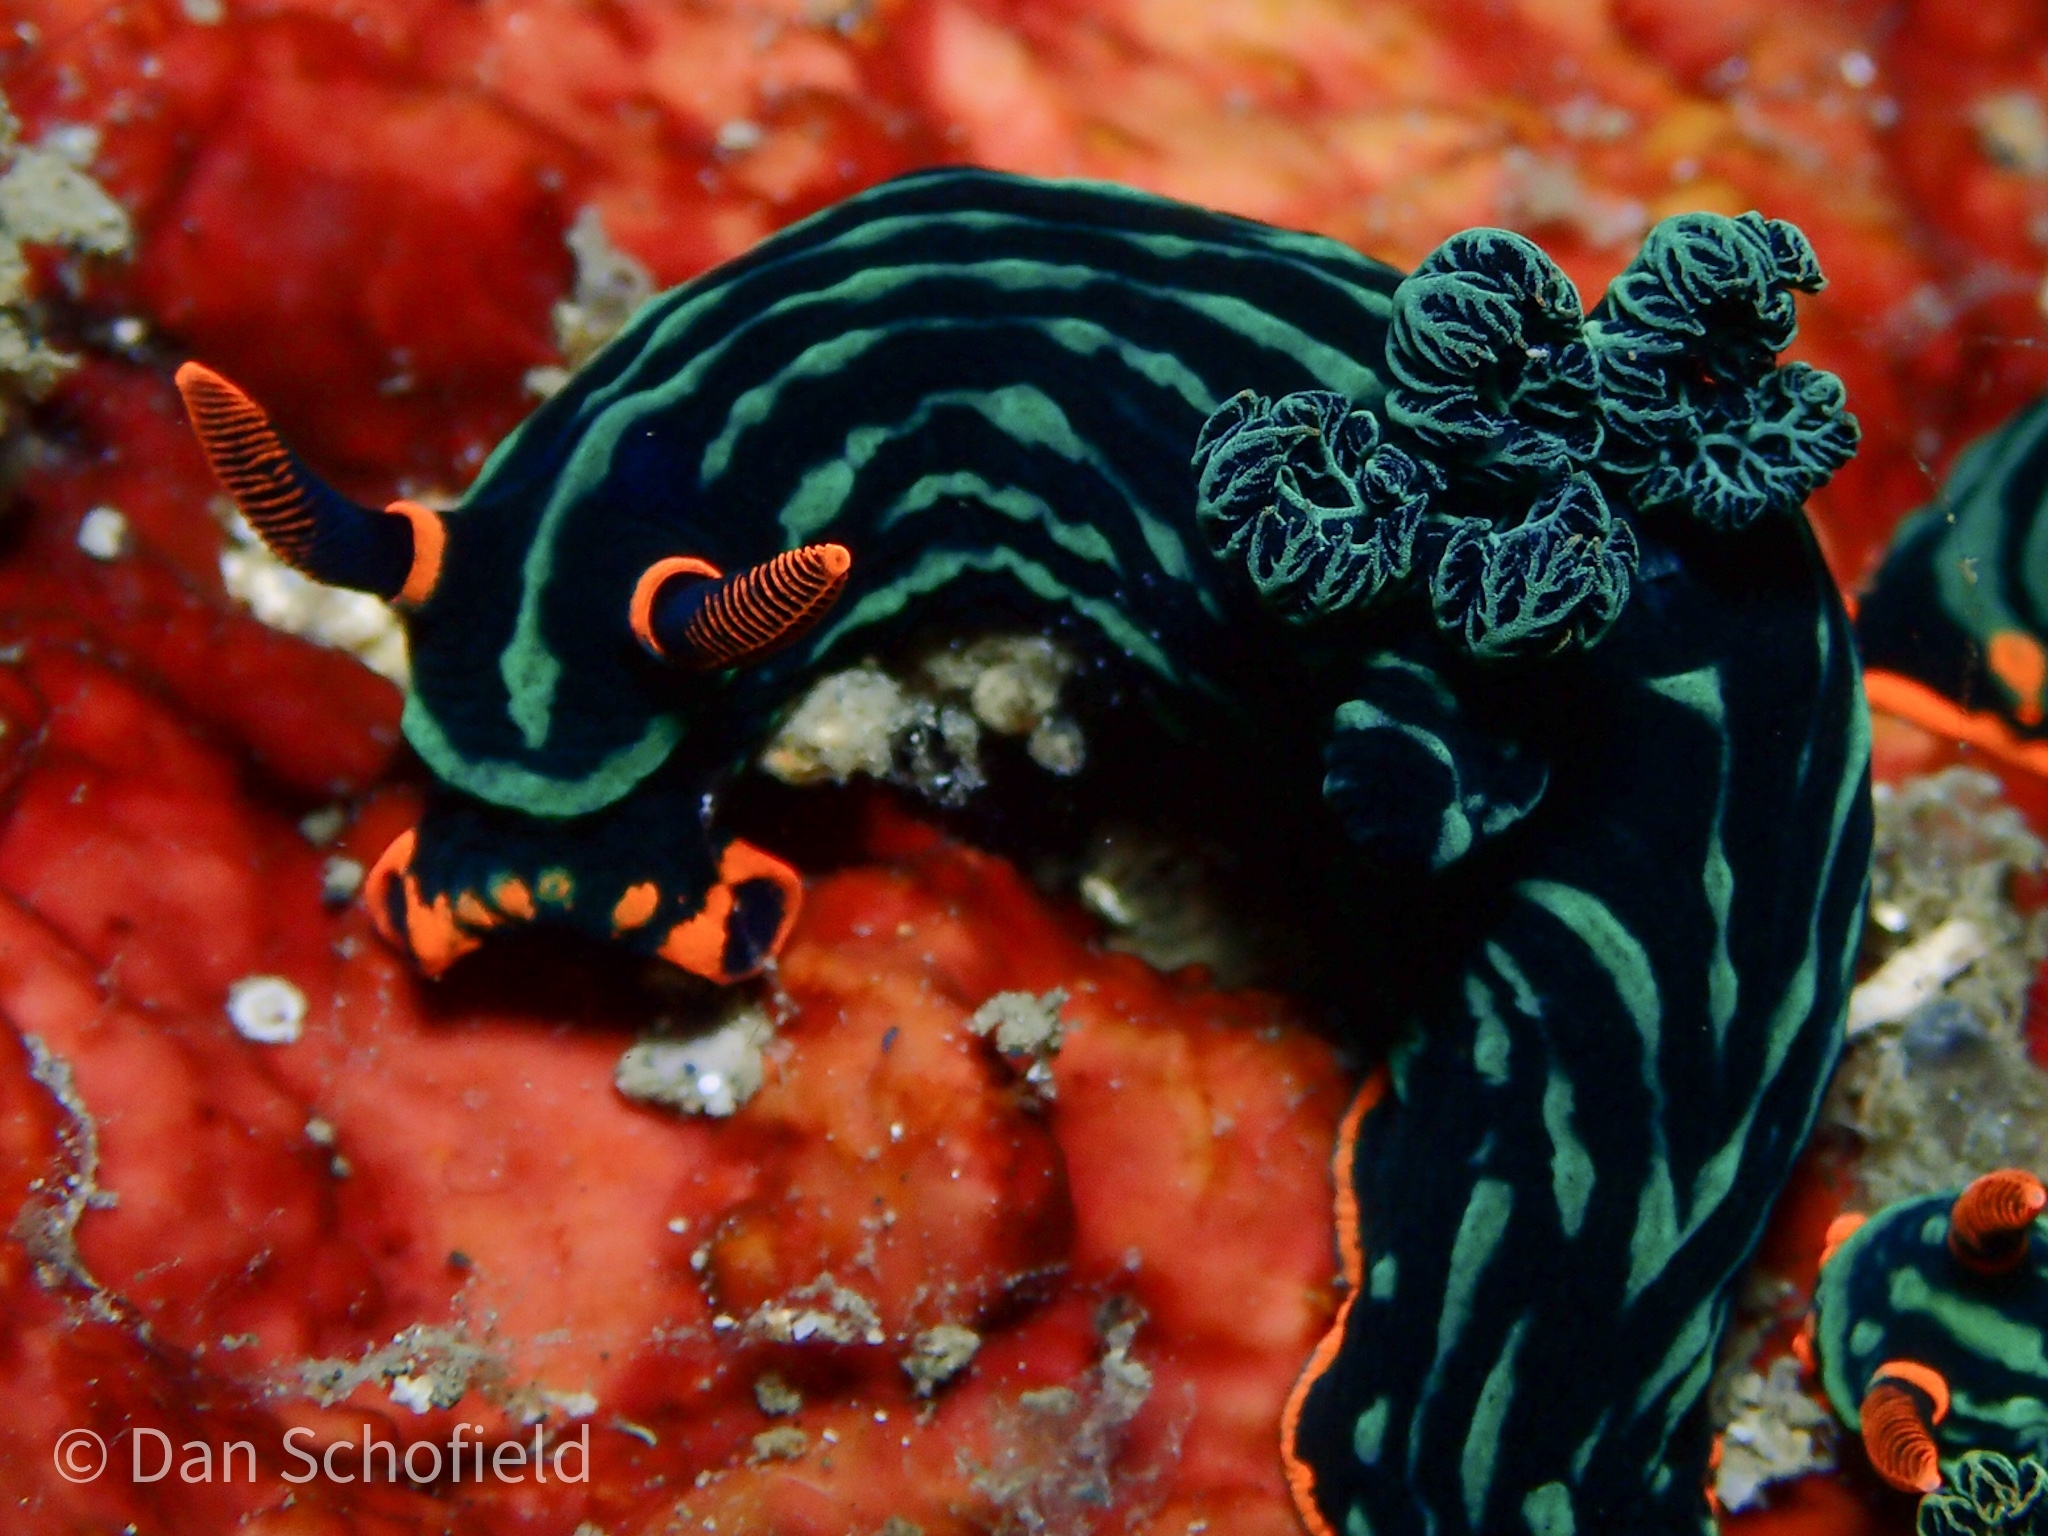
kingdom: Animalia
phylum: Mollusca
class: Gastropoda
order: Nudibranchia
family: Polyceridae
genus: Nembrotha
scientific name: Nembrotha kubaryana
